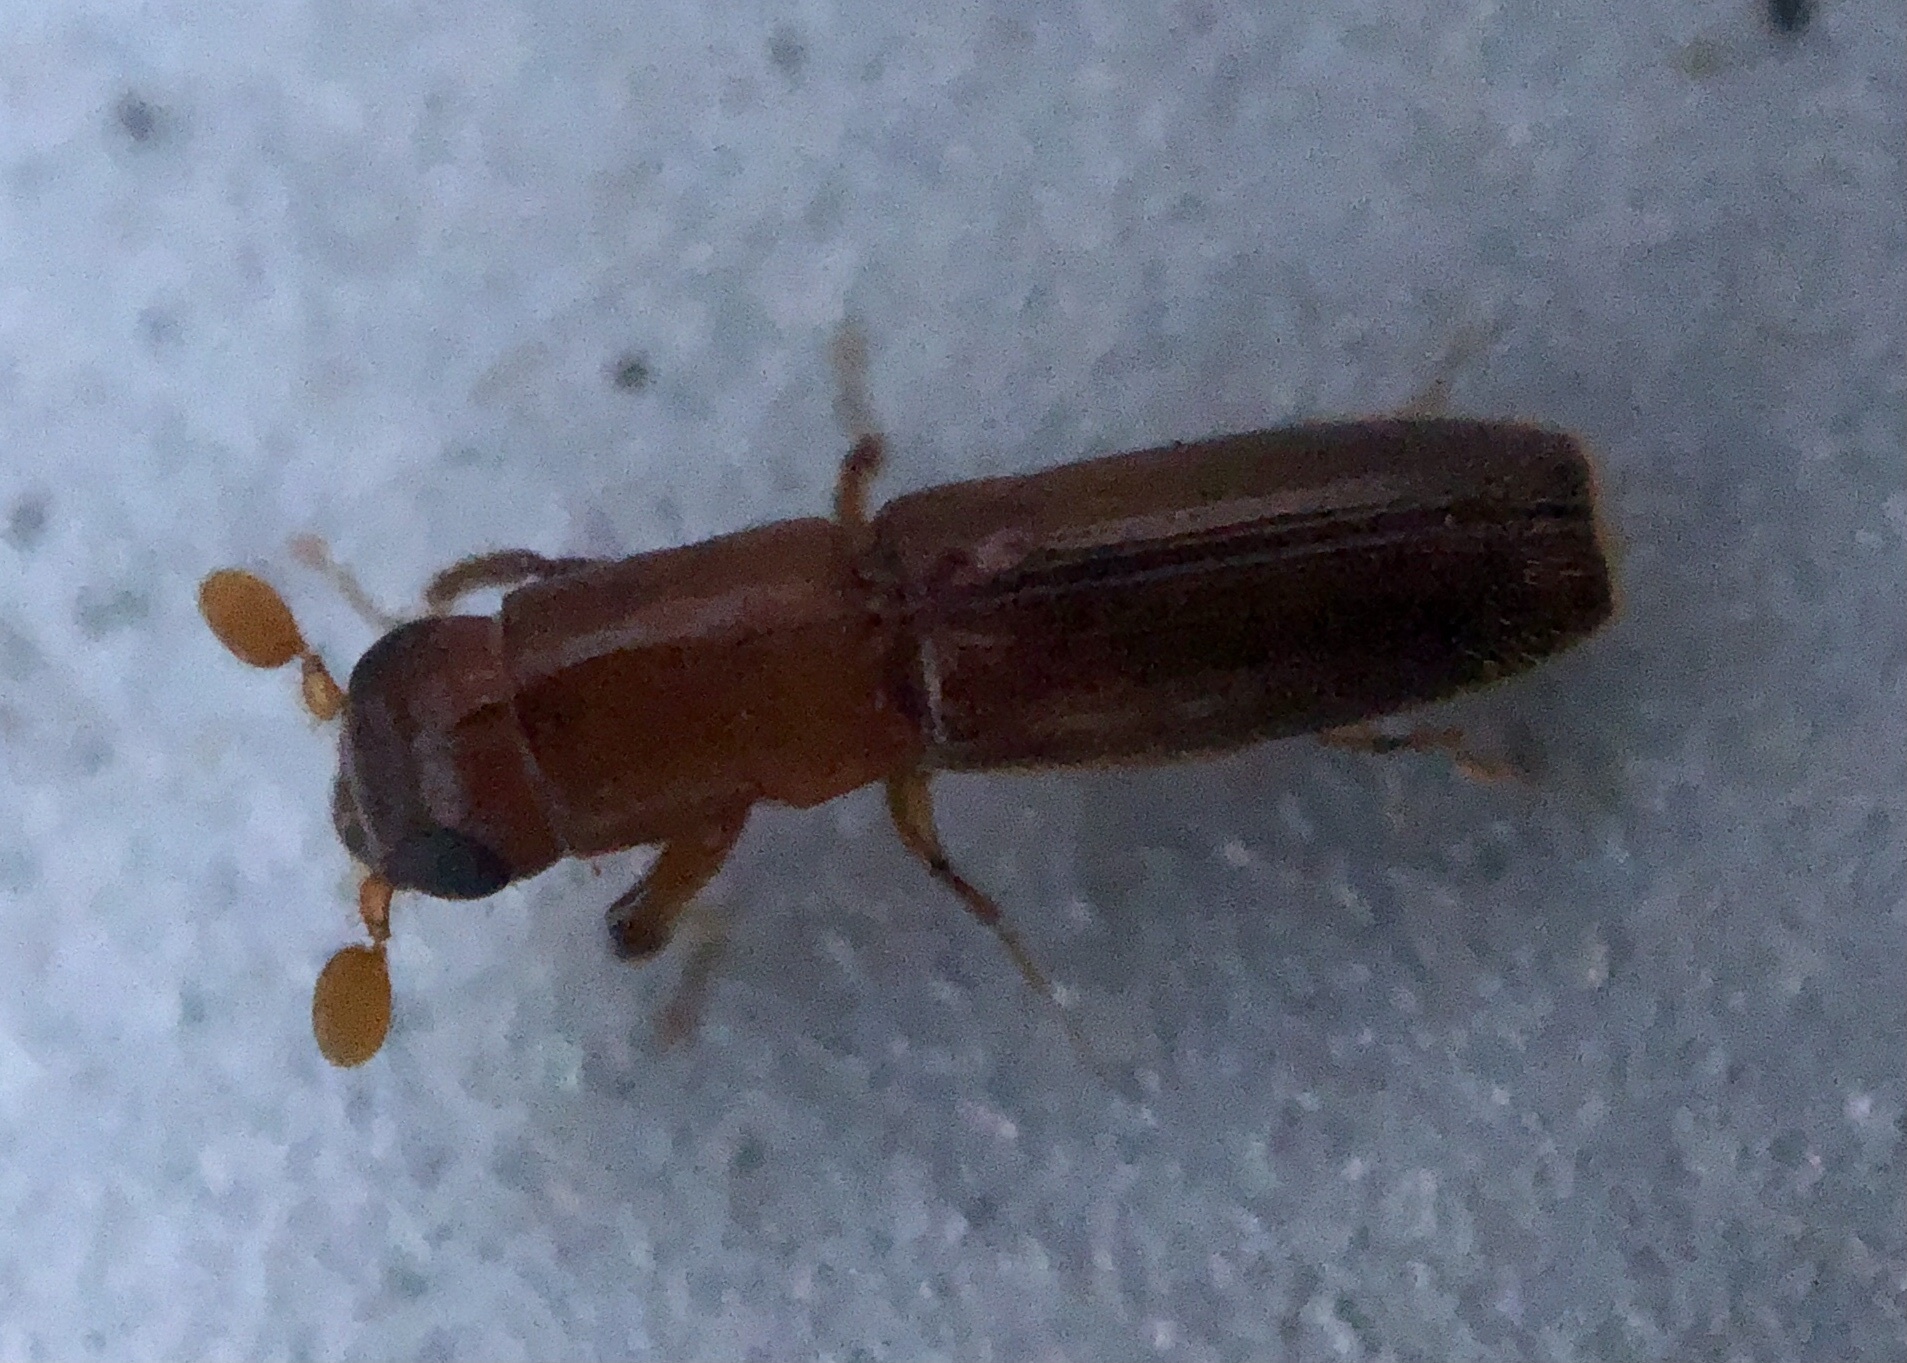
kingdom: Animalia
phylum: Arthropoda
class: Insecta
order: Coleoptera
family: Curculionidae
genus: Euplatypus
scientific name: Euplatypus compositus
